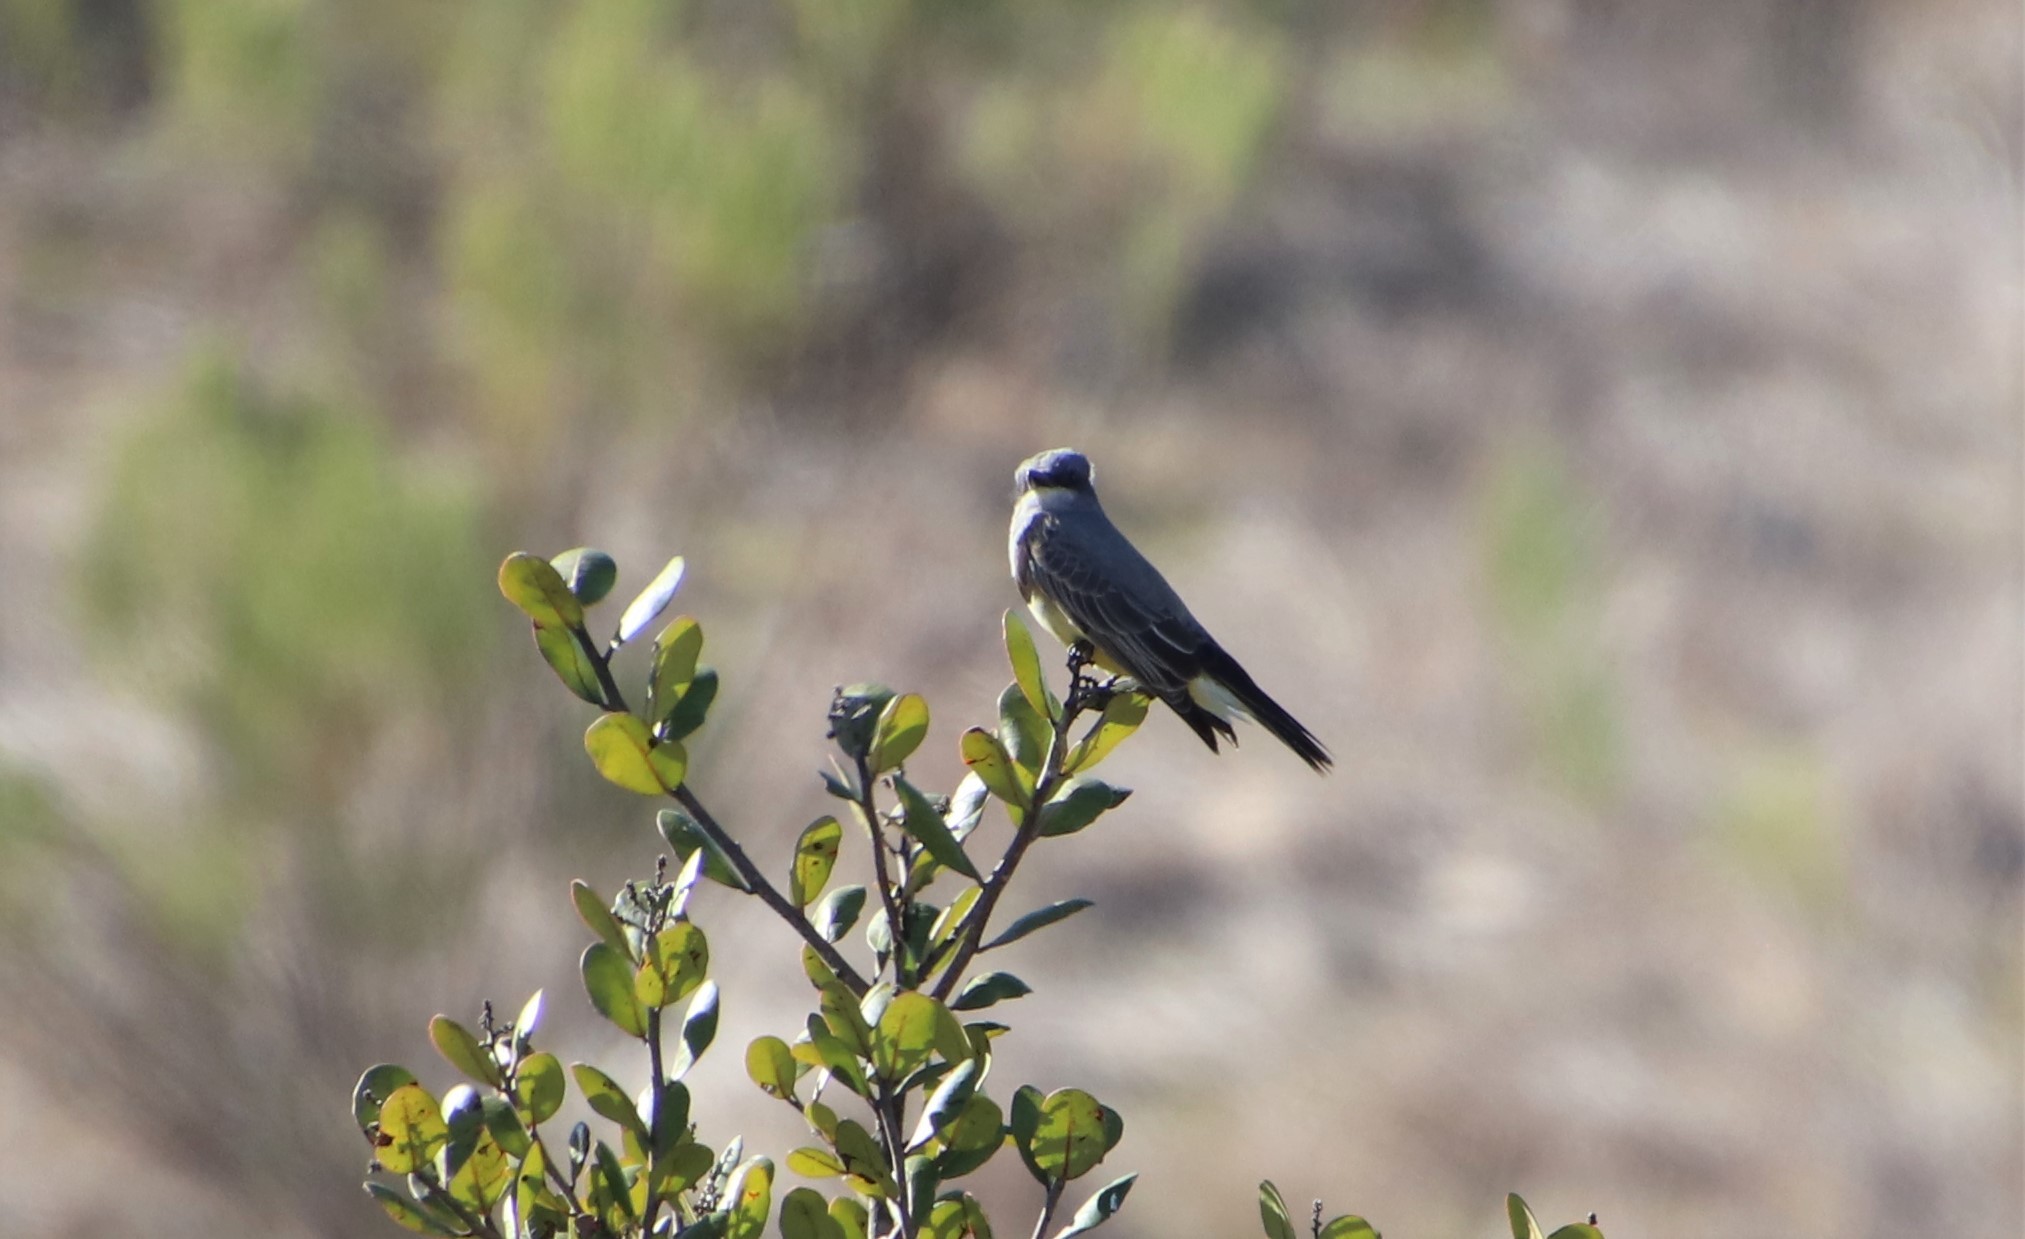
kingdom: Animalia
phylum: Chordata
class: Aves
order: Passeriformes
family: Tyrannidae
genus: Tyrannus
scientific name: Tyrannus vociferans
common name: Cassin's kingbird
